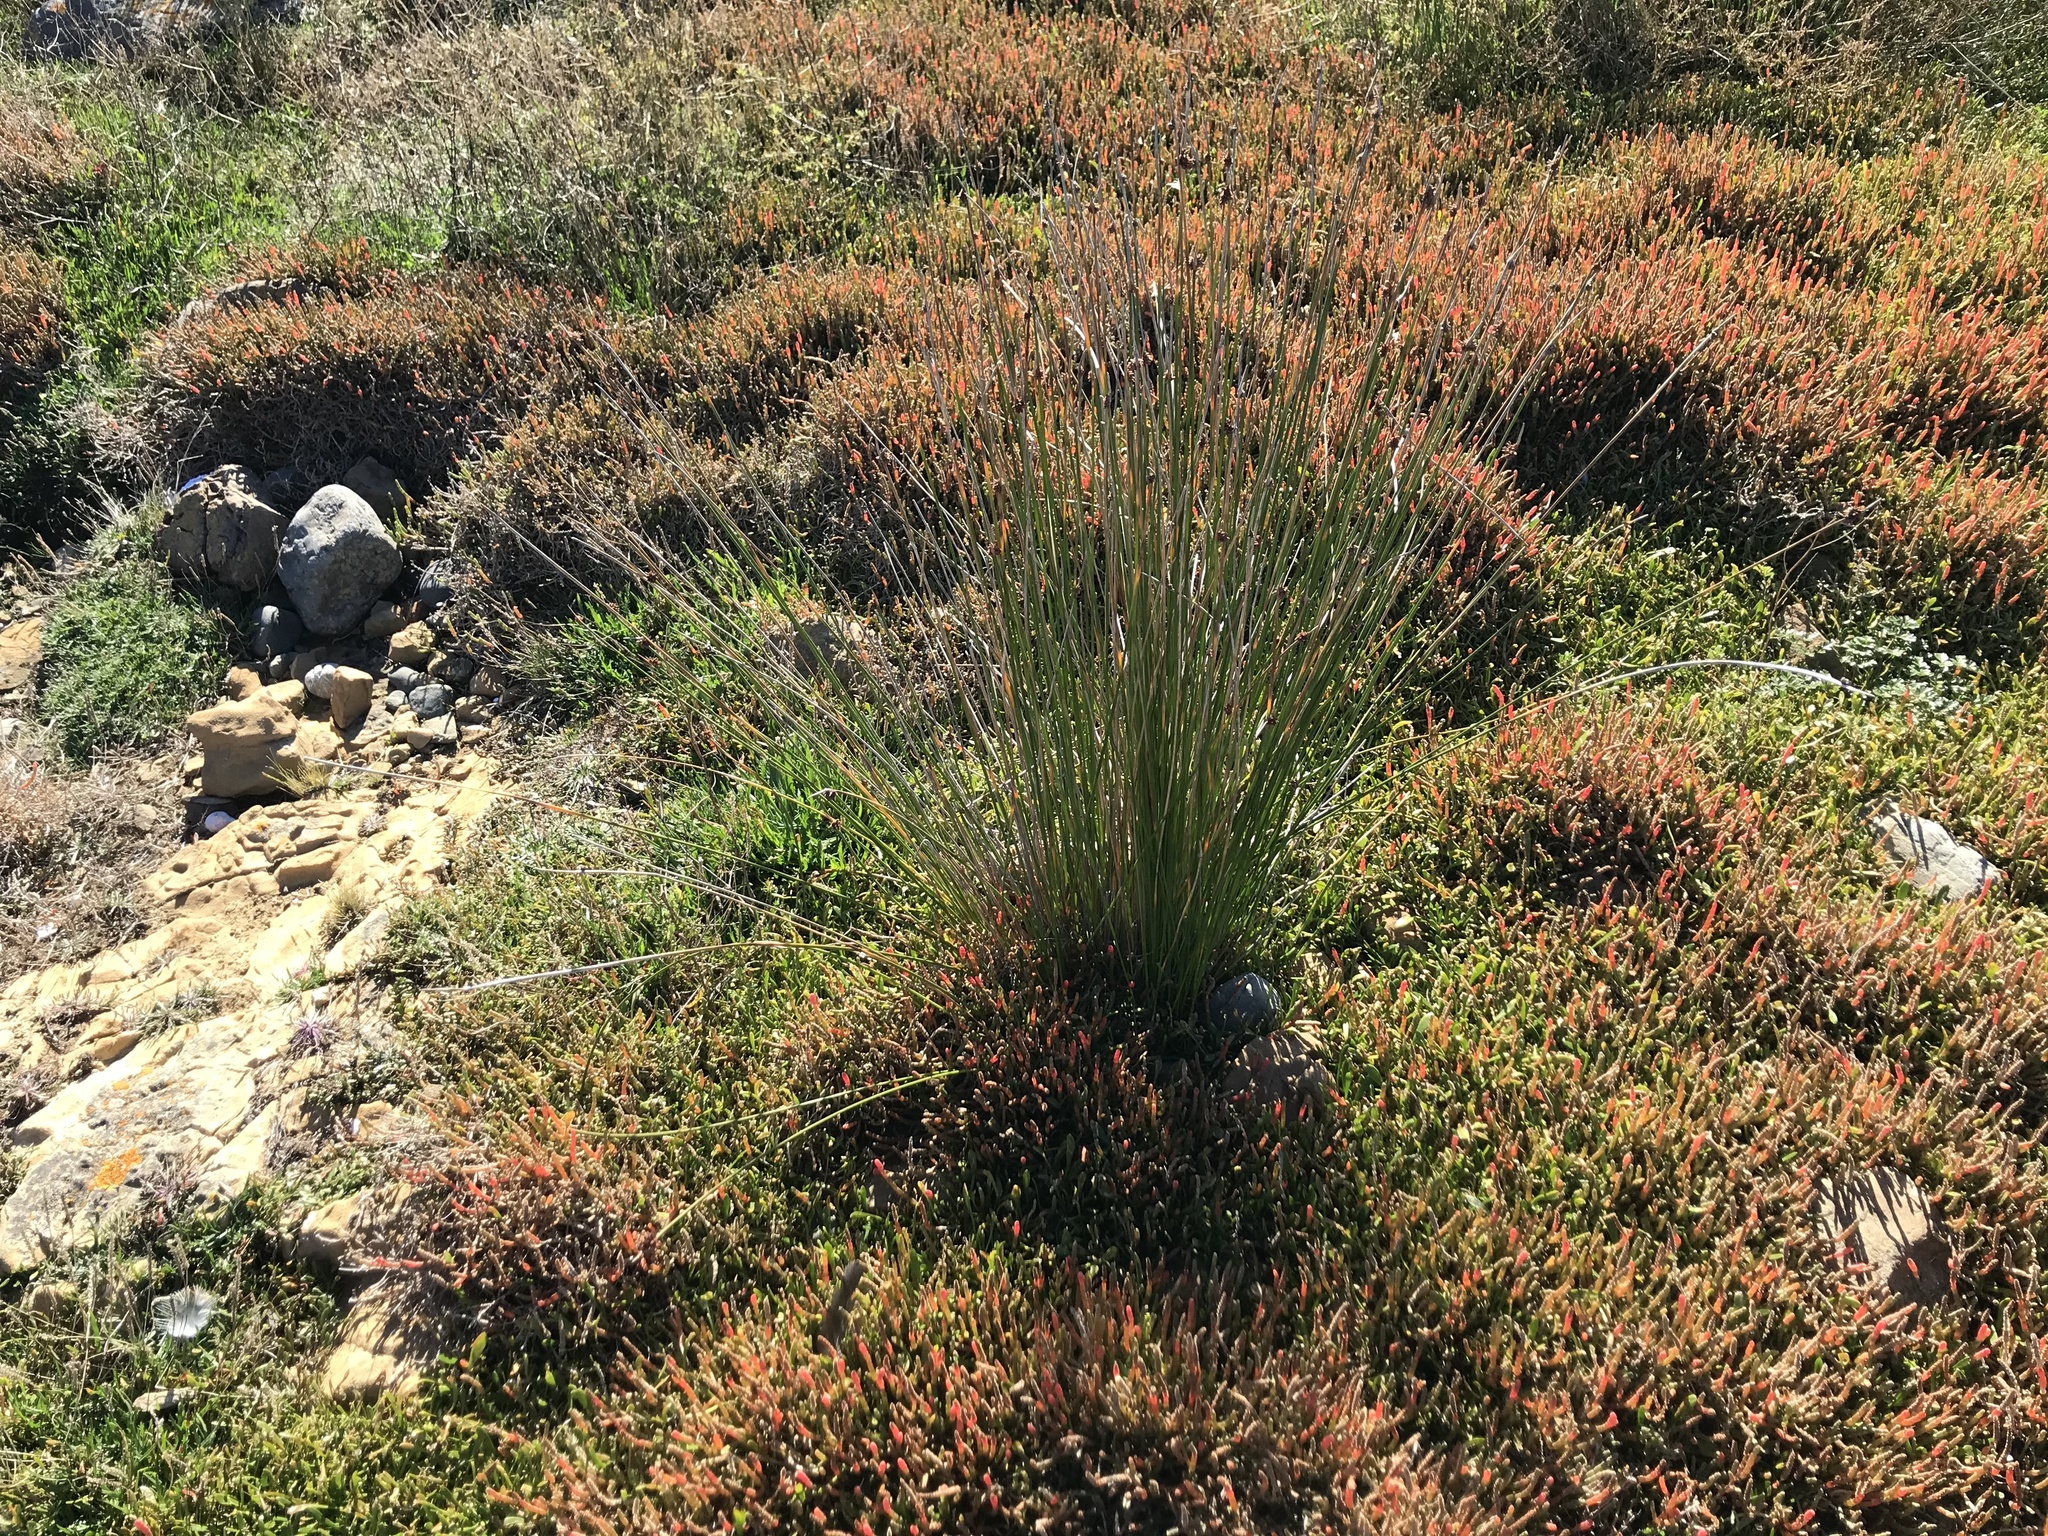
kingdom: Plantae
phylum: Tracheophyta
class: Liliopsida
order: Poales
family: Cyperaceae
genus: Ficinia
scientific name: Ficinia nodosa
